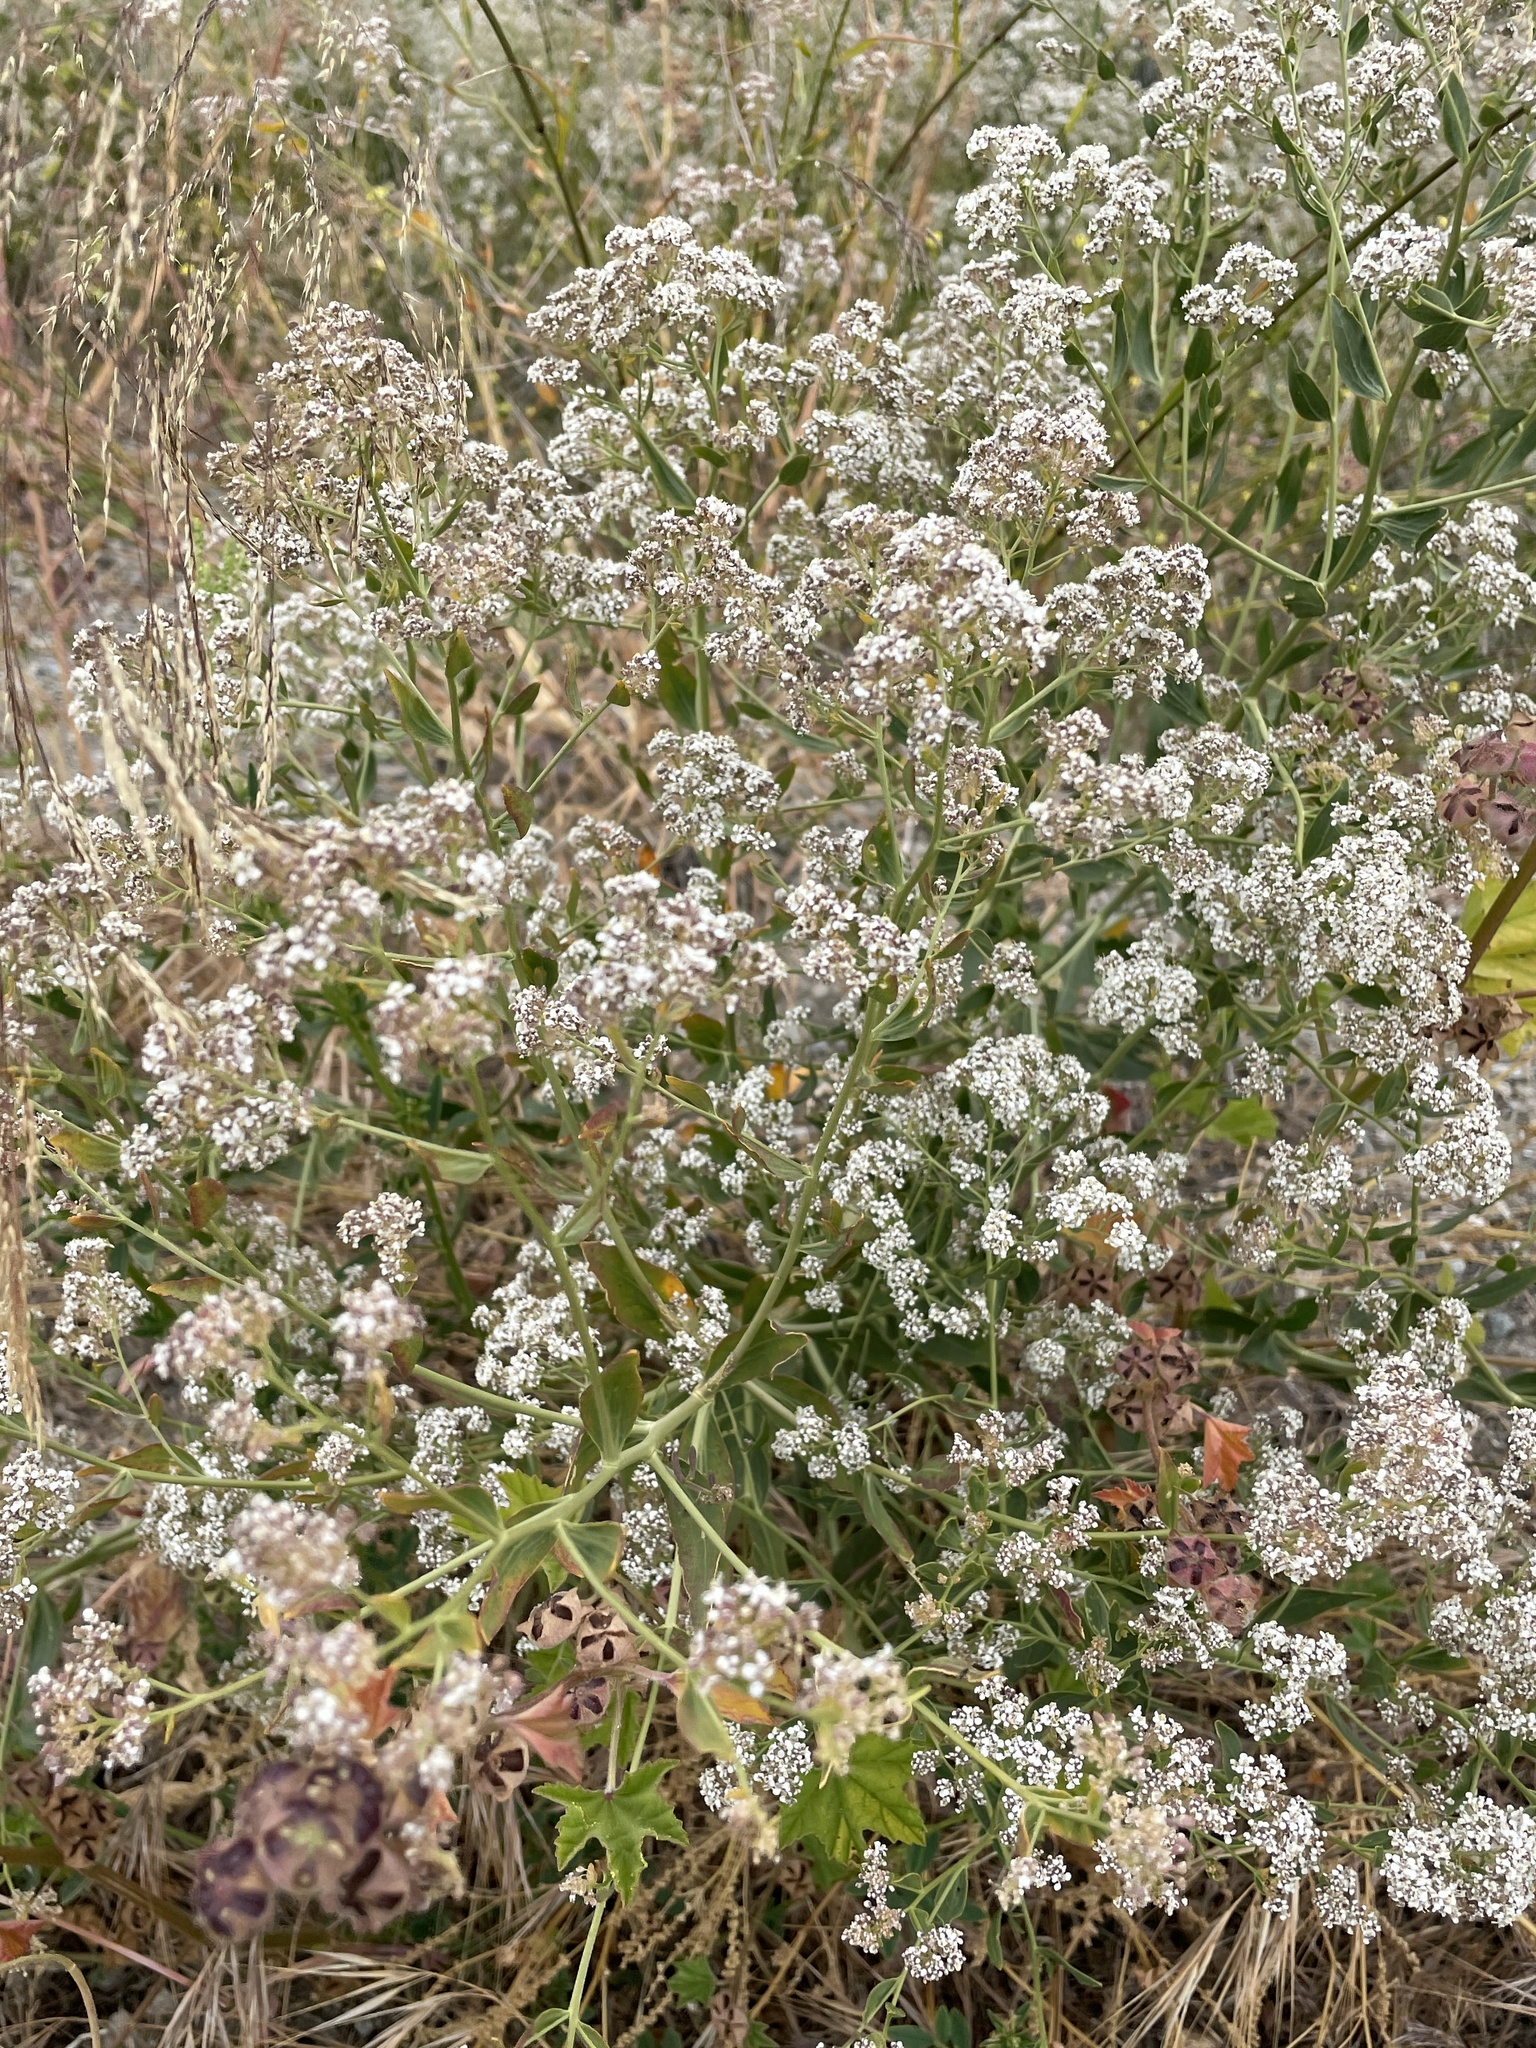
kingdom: Plantae
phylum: Tracheophyta
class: Magnoliopsida
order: Brassicales
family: Brassicaceae
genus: Lepidium
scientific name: Lepidium latifolium
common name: Dittander
